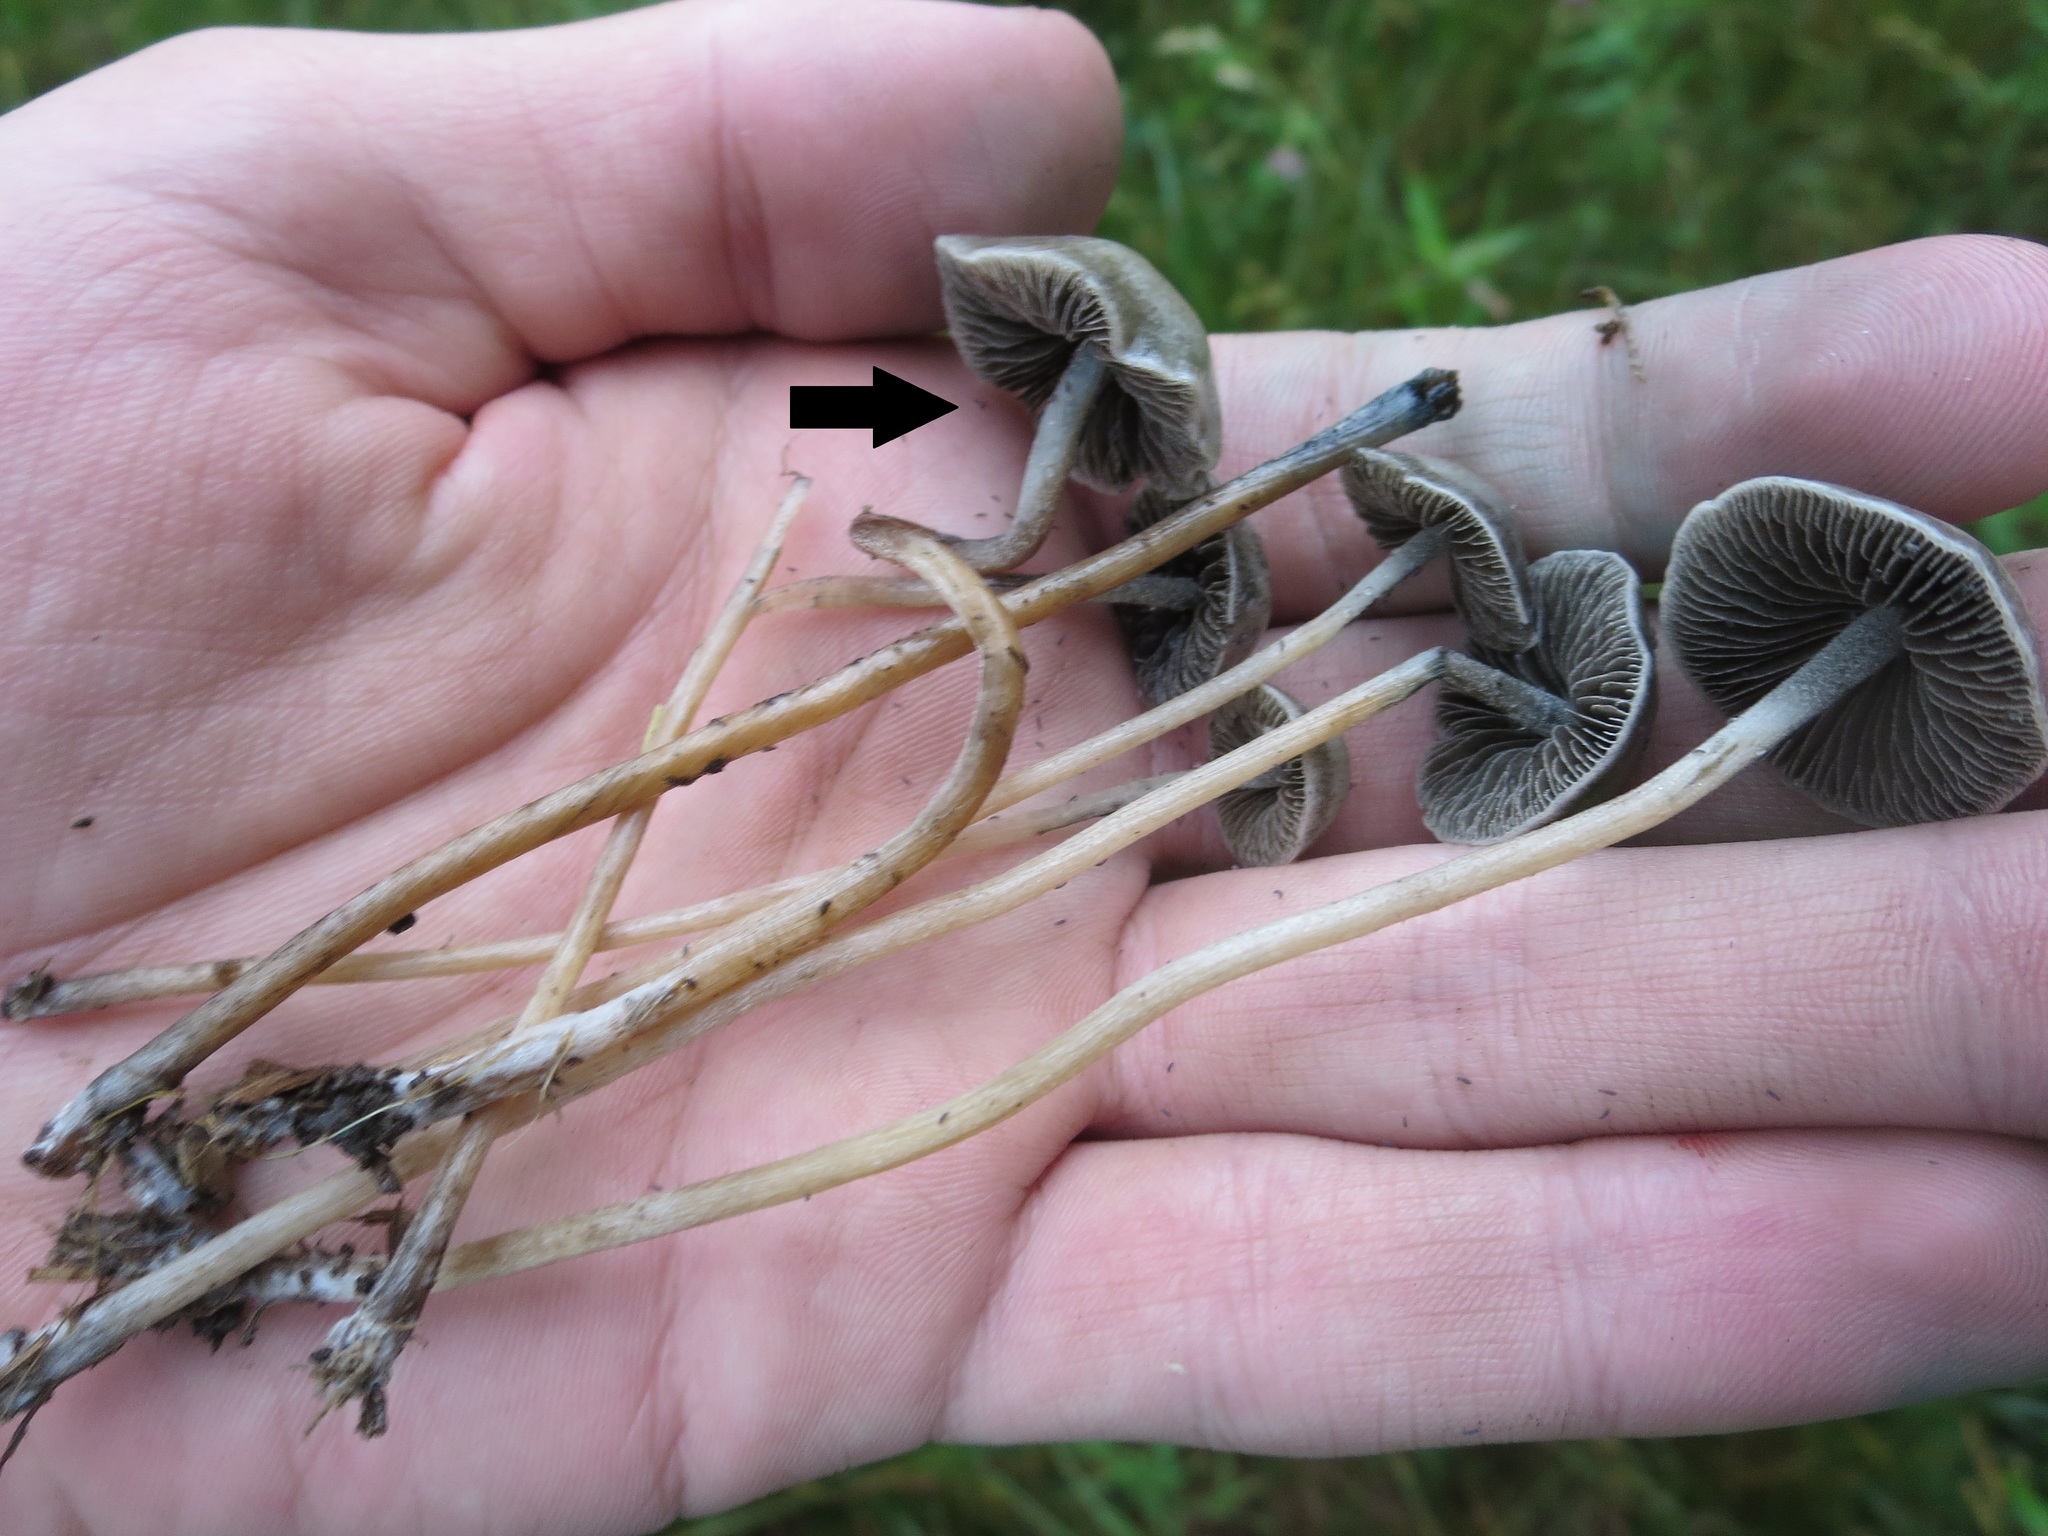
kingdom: Fungi
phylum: Basidiomycota
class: Agaricomycetes
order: Agaricales
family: Bolbitiaceae
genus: Panaeolus
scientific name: Panaeolus bisporus
